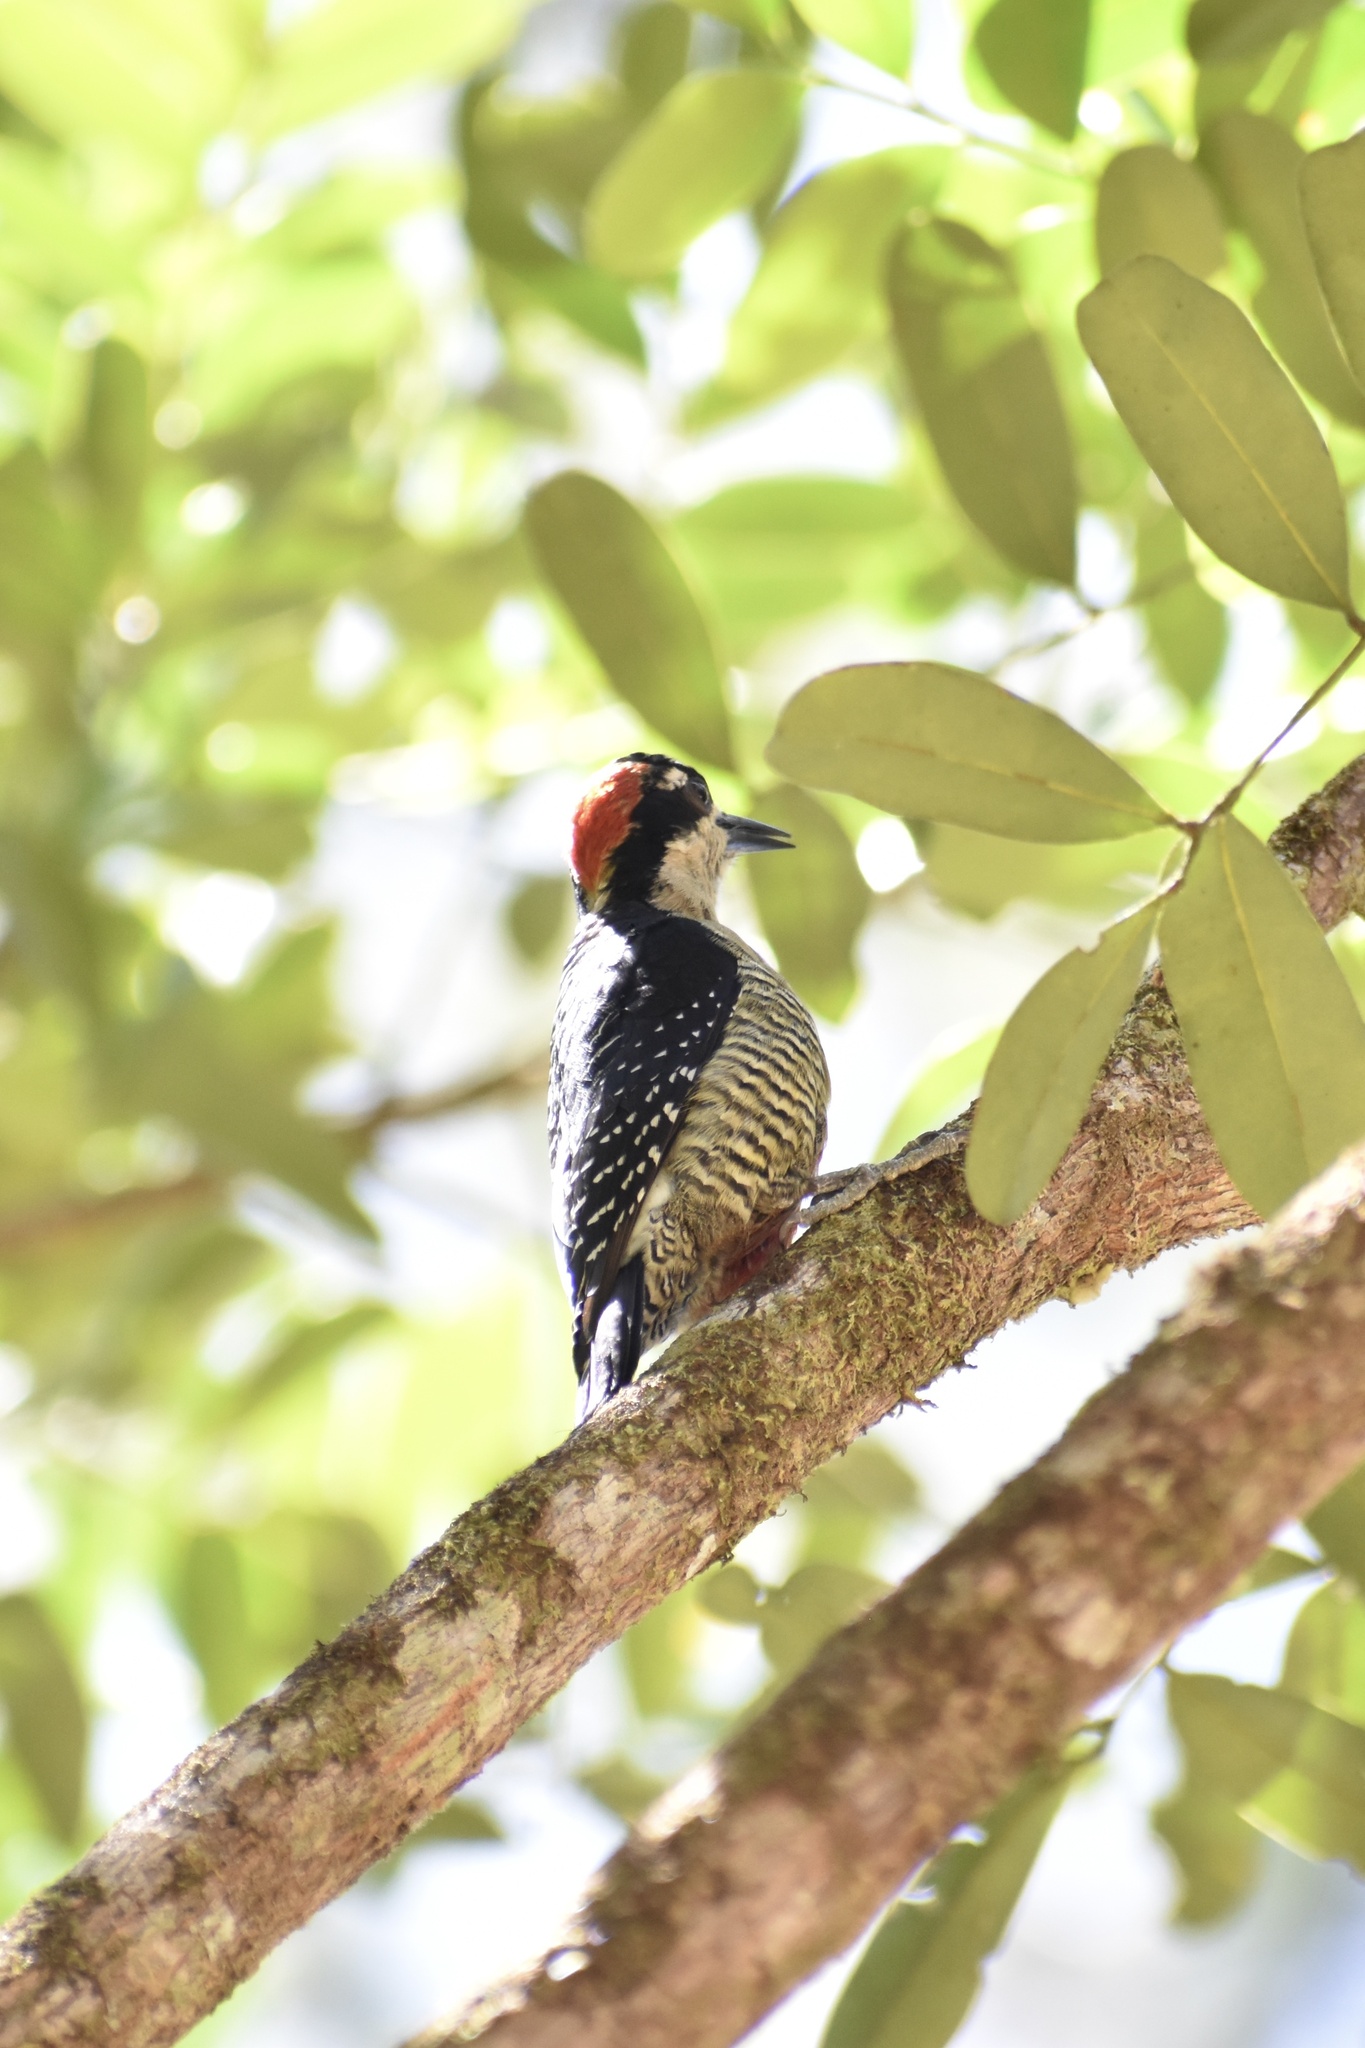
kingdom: Animalia
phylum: Chordata
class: Aves
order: Piciformes
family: Picidae
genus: Melanerpes
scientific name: Melanerpes pucherani
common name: Black-cheeked woodpecker
